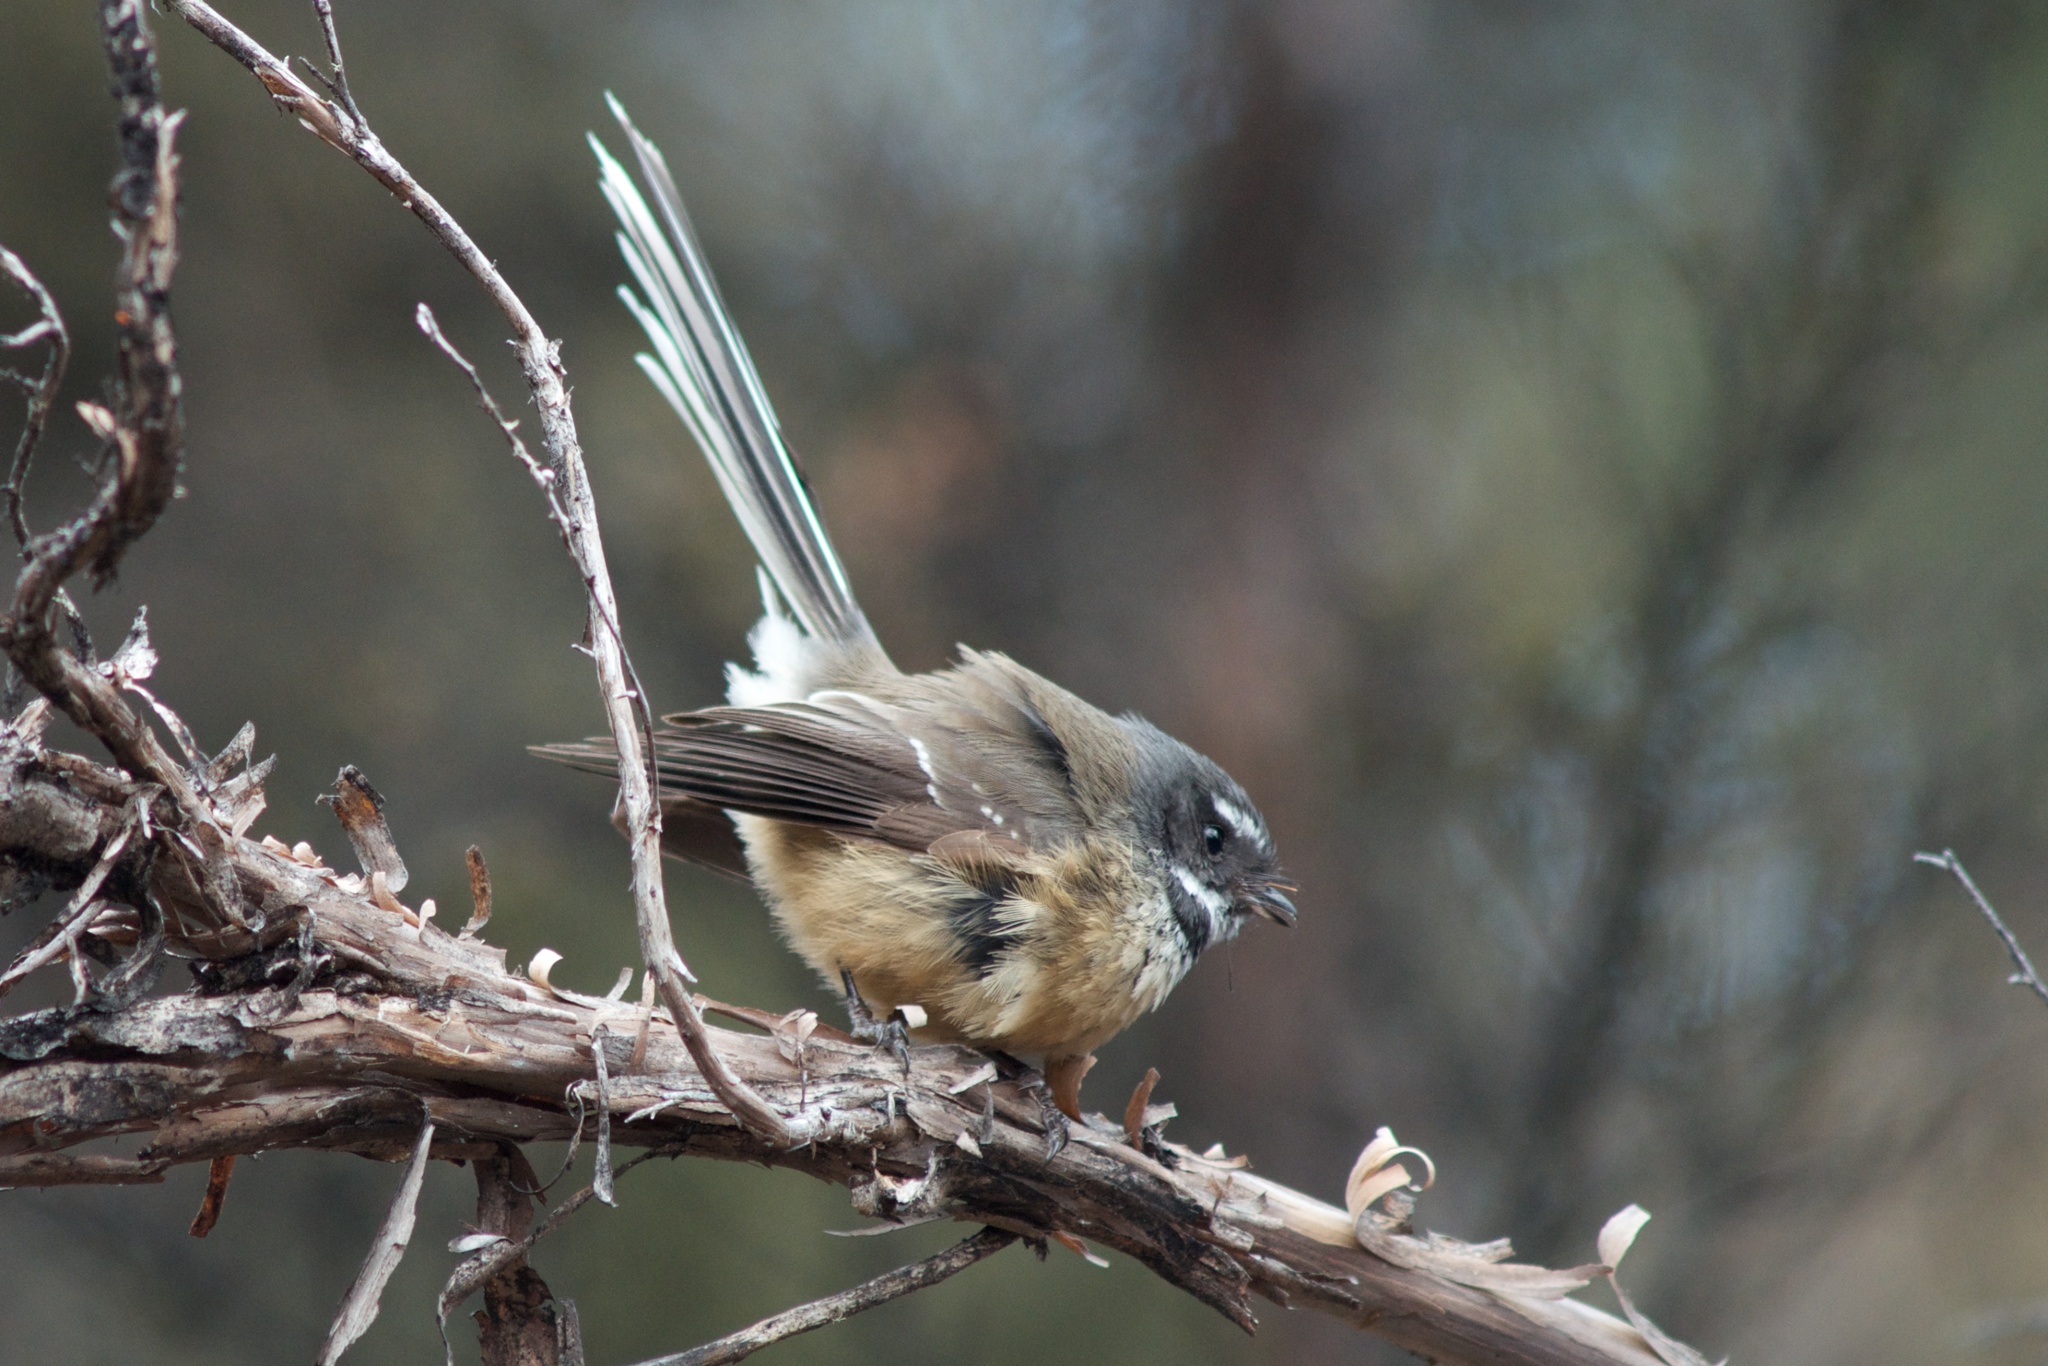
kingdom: Animalia
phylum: Chordata
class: Aves
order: Passeriformes
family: Rhipiduridae
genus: Rhipidura
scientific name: Rhipidura fuliginosa
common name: New zealand fantail
